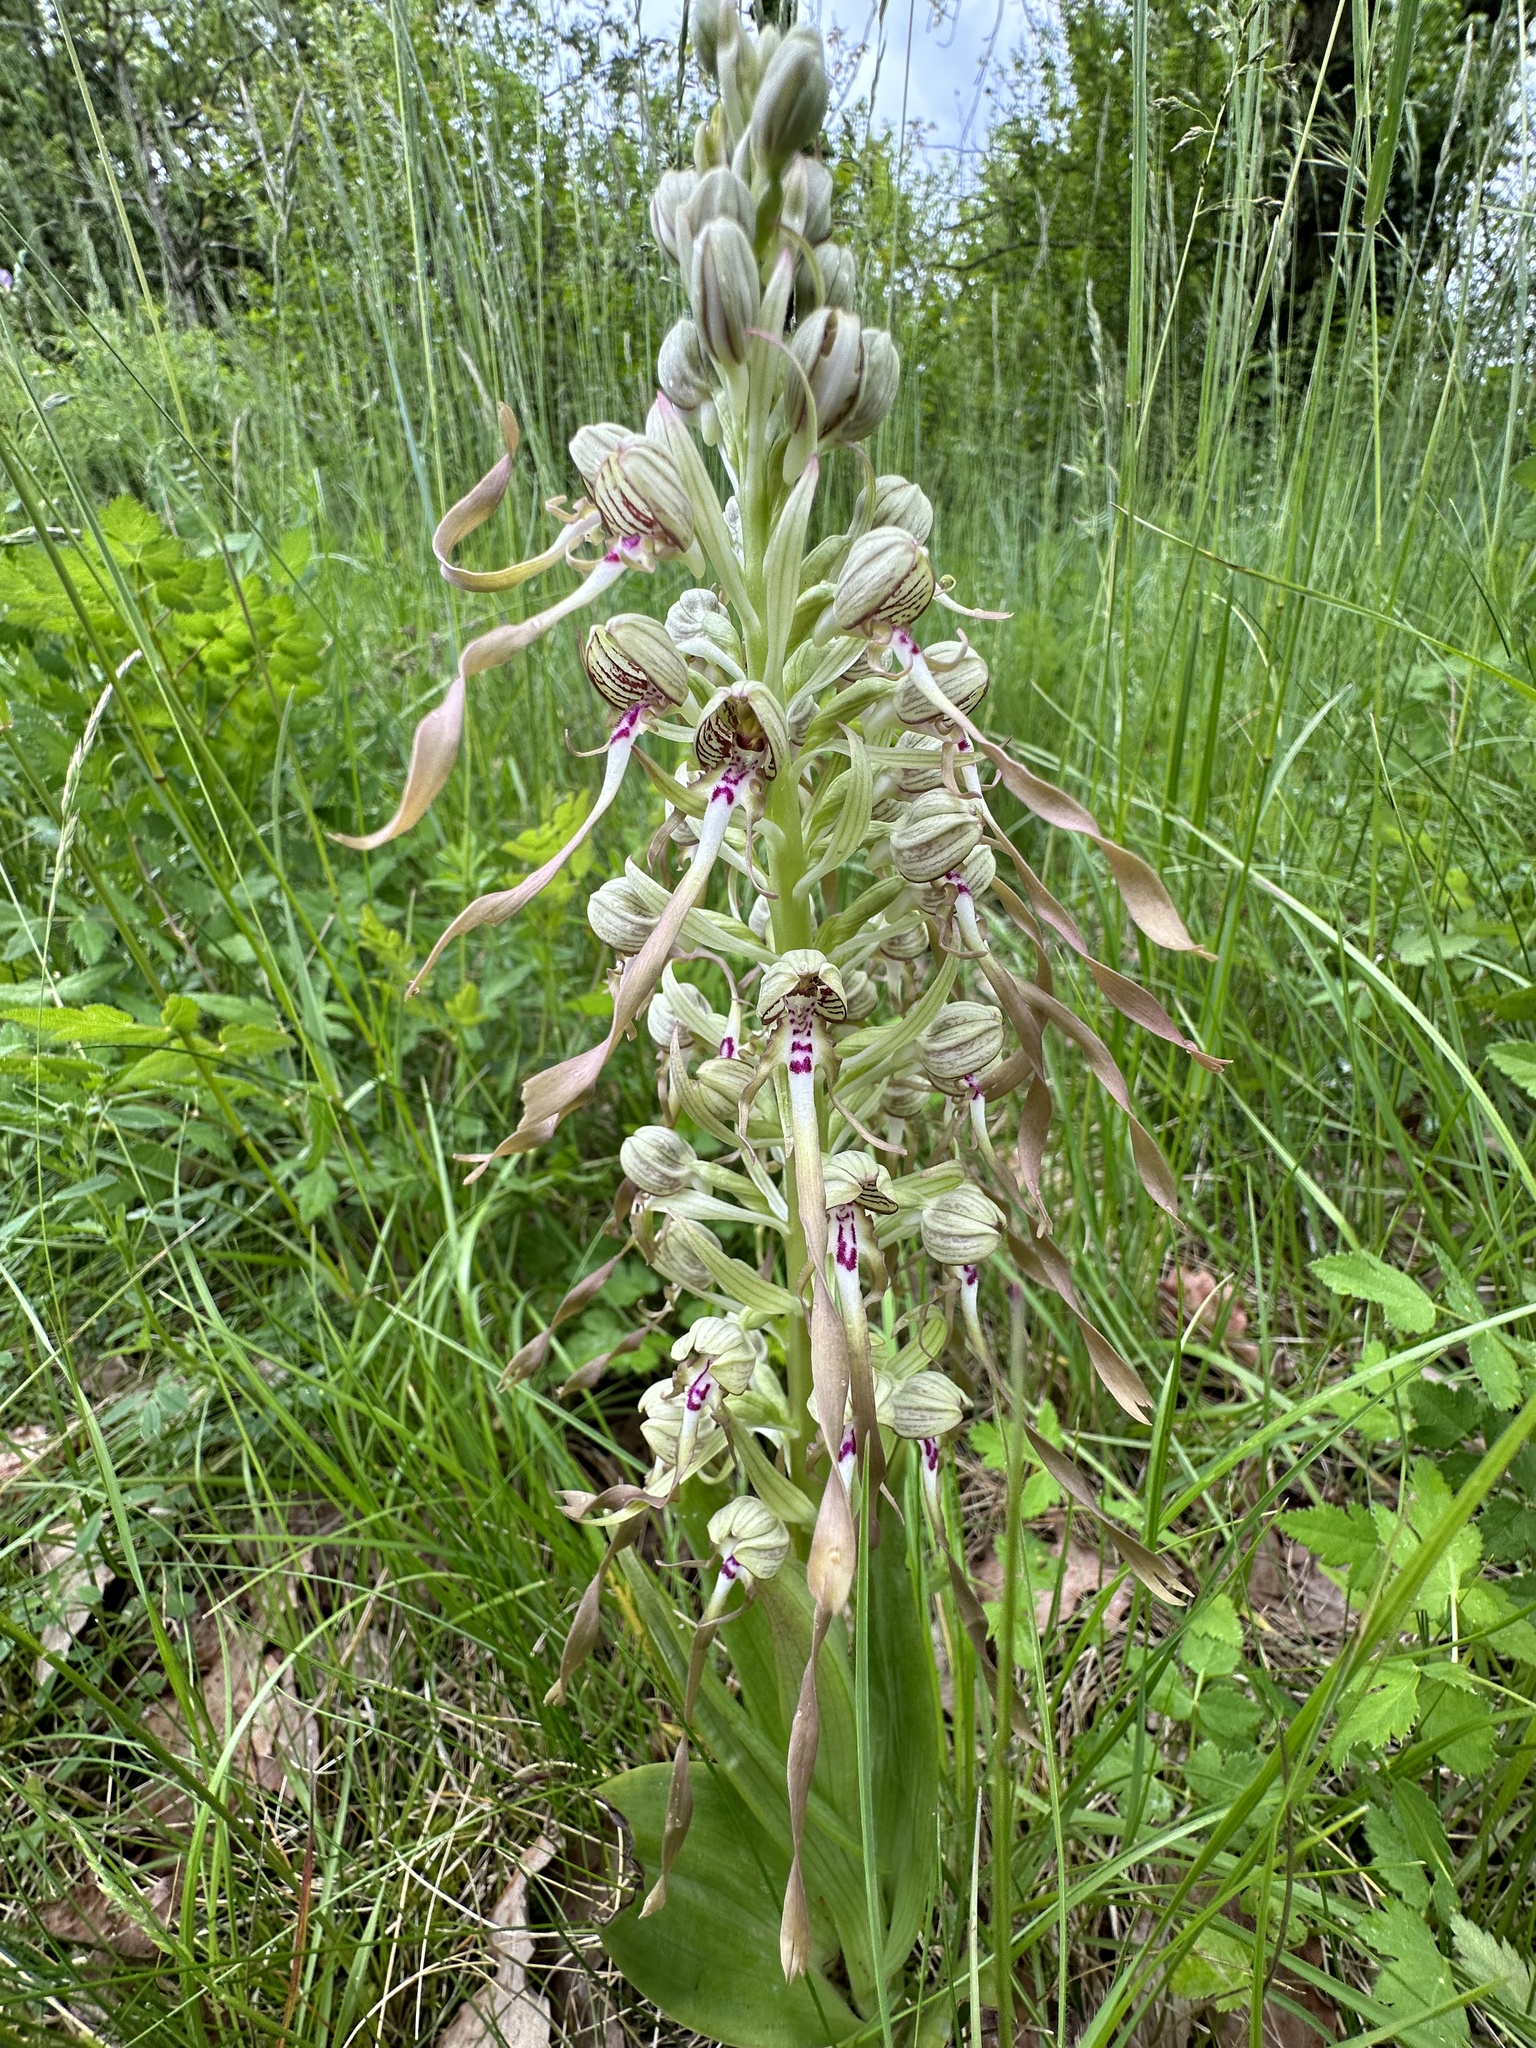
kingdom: Plantae
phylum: Tracheophyta
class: Liliopsida
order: Asparagales
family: Orchidaceae
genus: Himantoglossum
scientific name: Himantoglossum hircinum
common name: Lizard orchid
